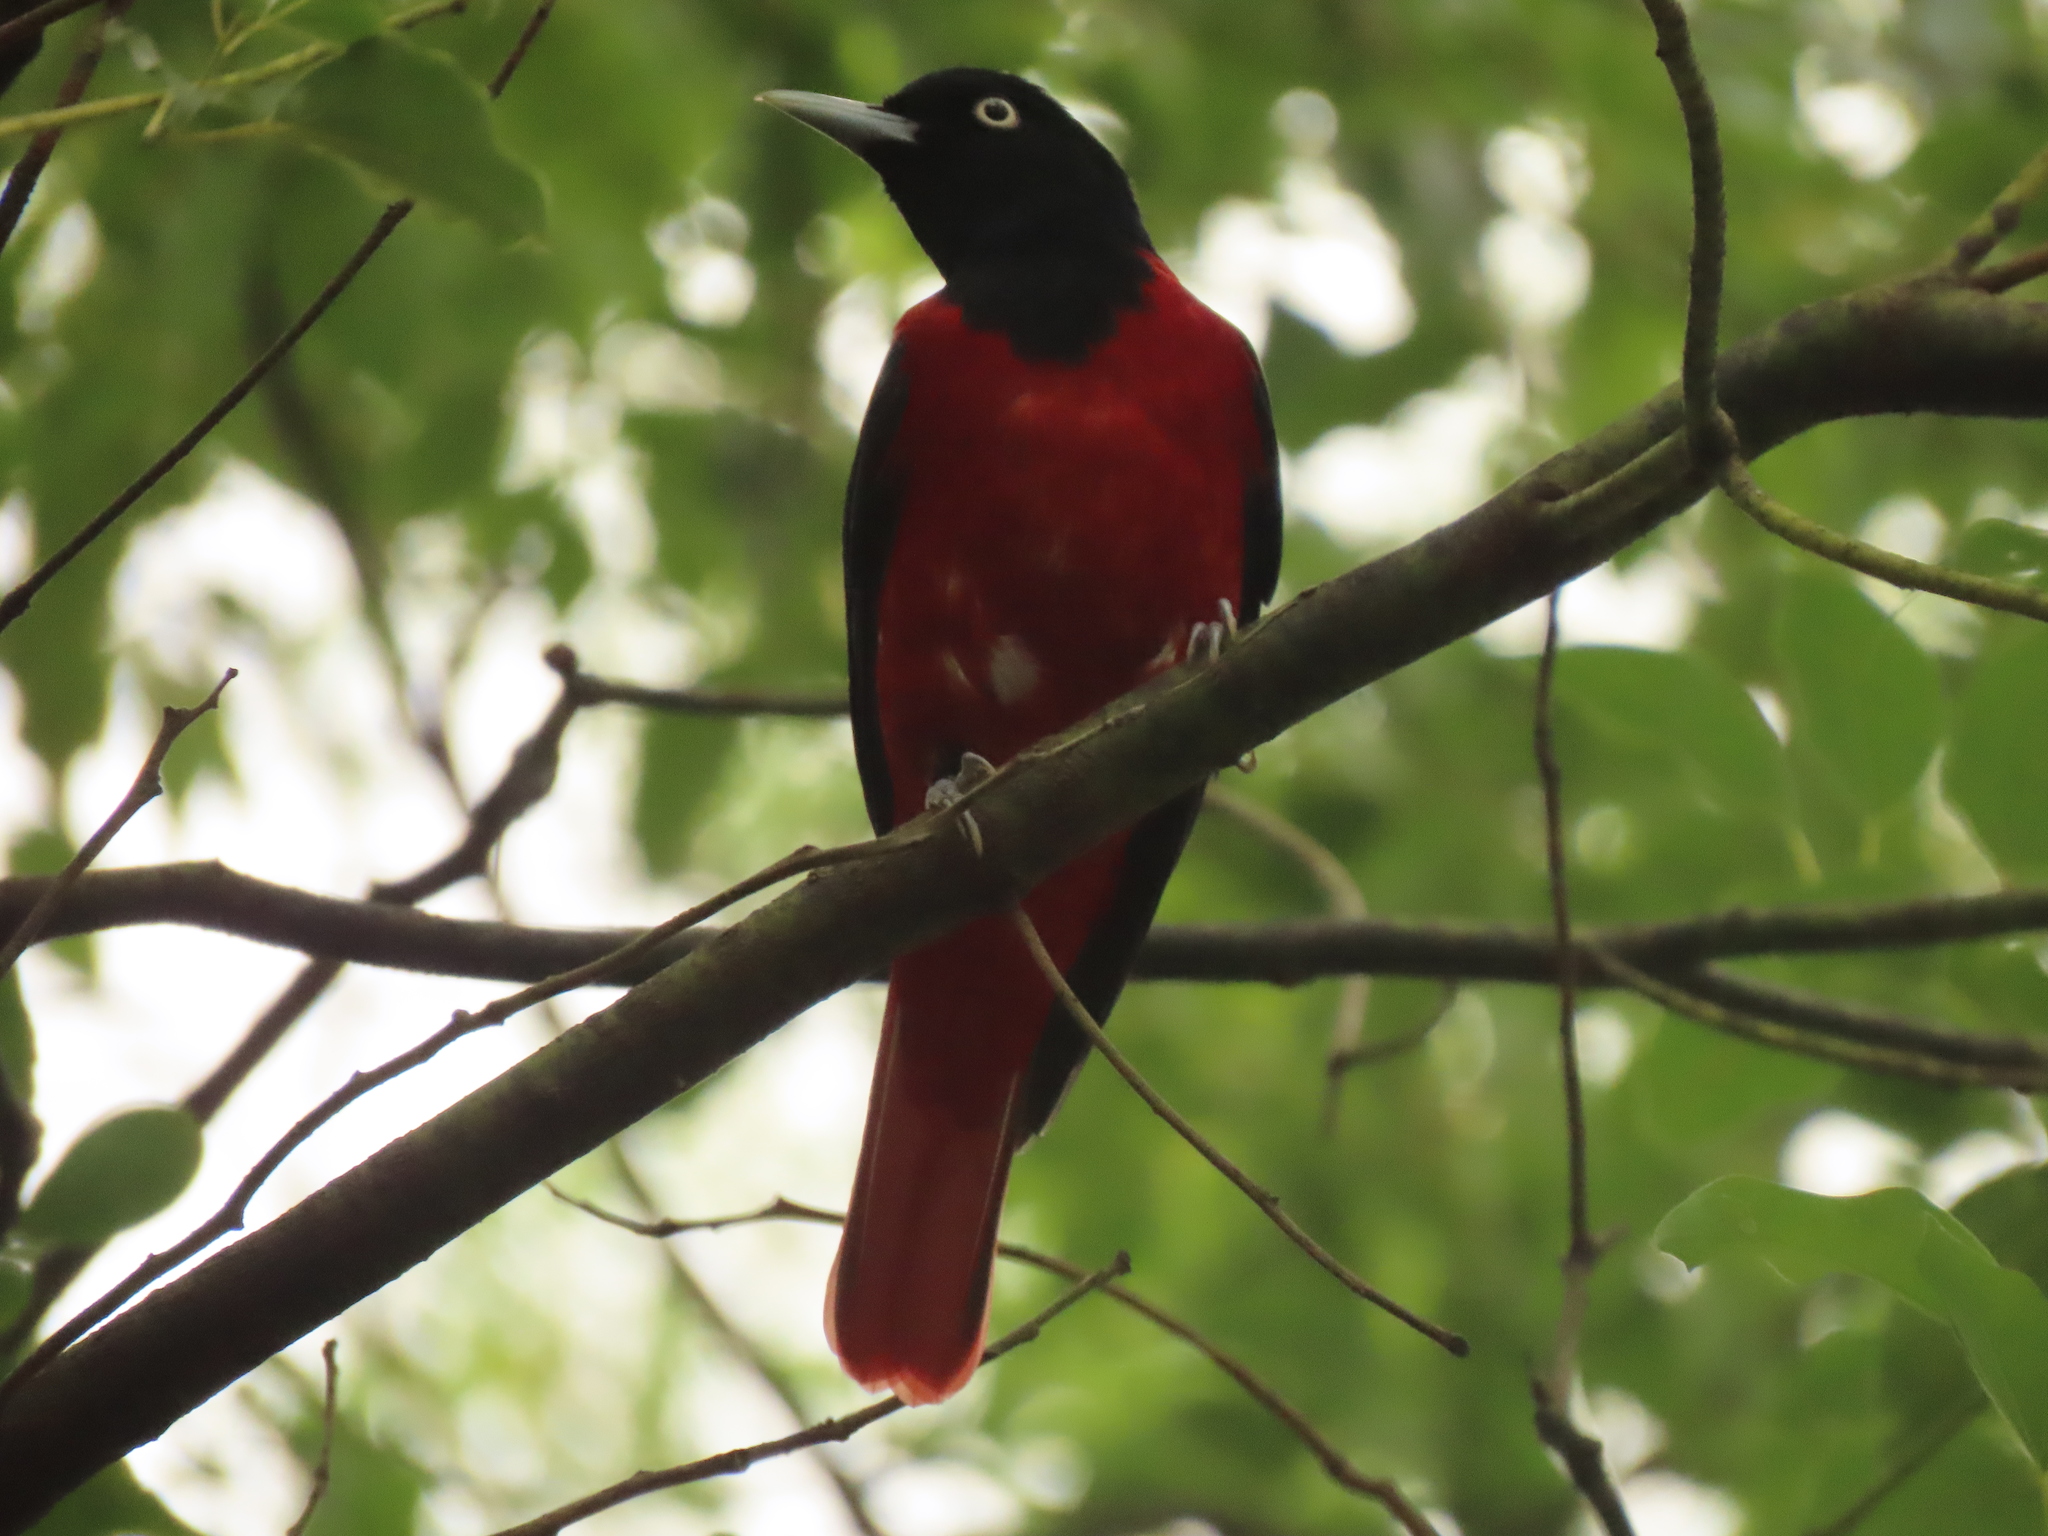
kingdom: Animalia
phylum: Chordata
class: Aves
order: Passeriformes
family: Oriolidae
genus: Oriolus
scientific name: Oriolus traillii
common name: Maroon oriole
